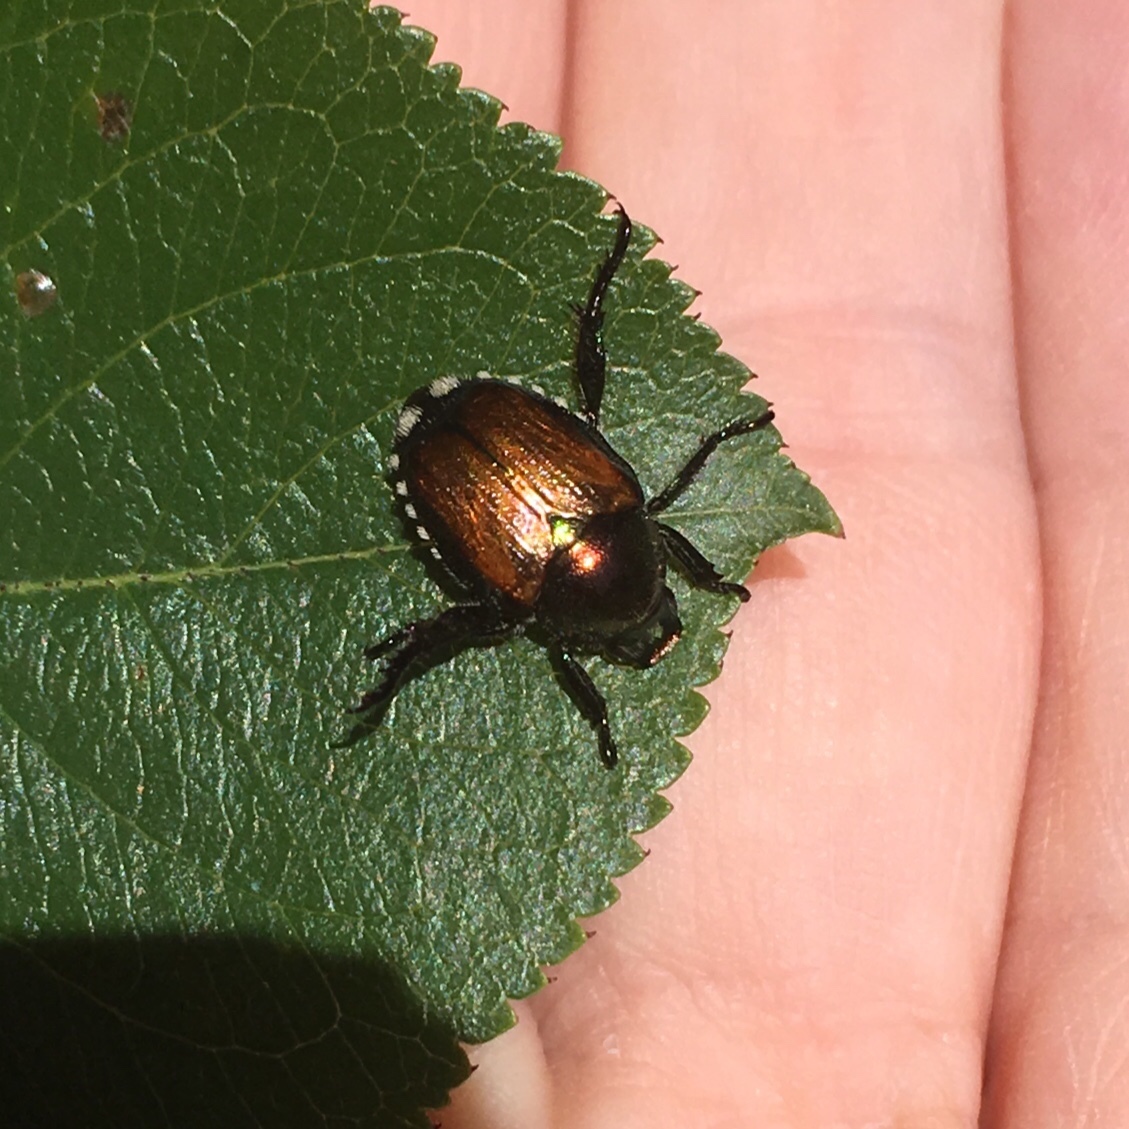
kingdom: Animalia
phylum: Arthropoda
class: Insecta
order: Coleoptera
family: Scarabaeidae
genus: Popillia
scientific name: Popillia japonica
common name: Japanese beetle
